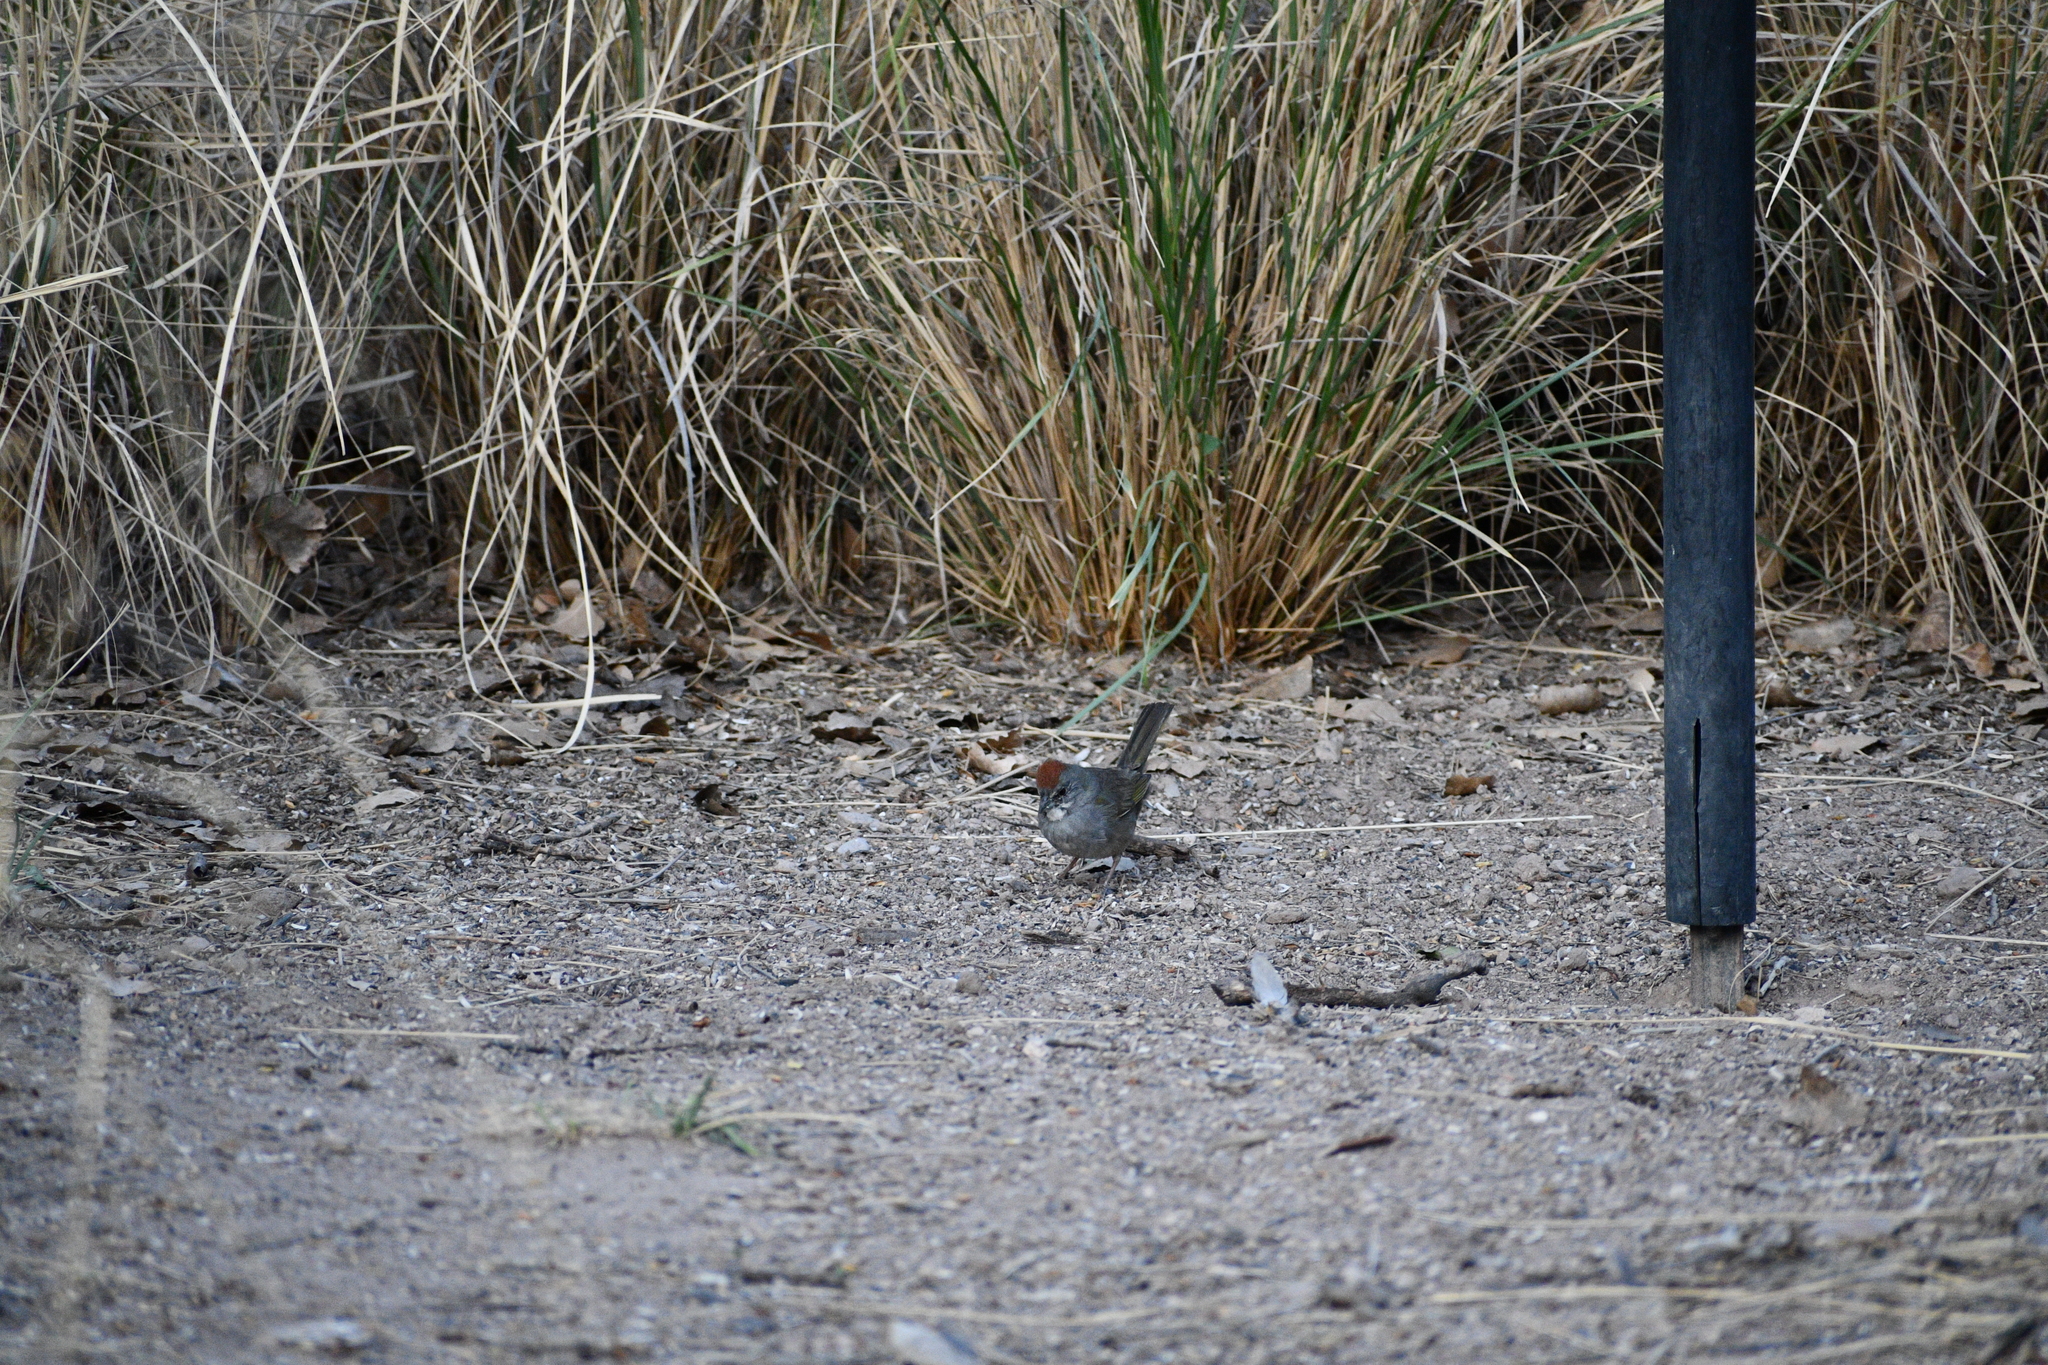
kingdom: Animalia
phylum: Chordata
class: Aves
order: Passeriformes
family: Passerellidae
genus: Pipilo
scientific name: Pipilo chlorurus
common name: Green-tailed towhee
